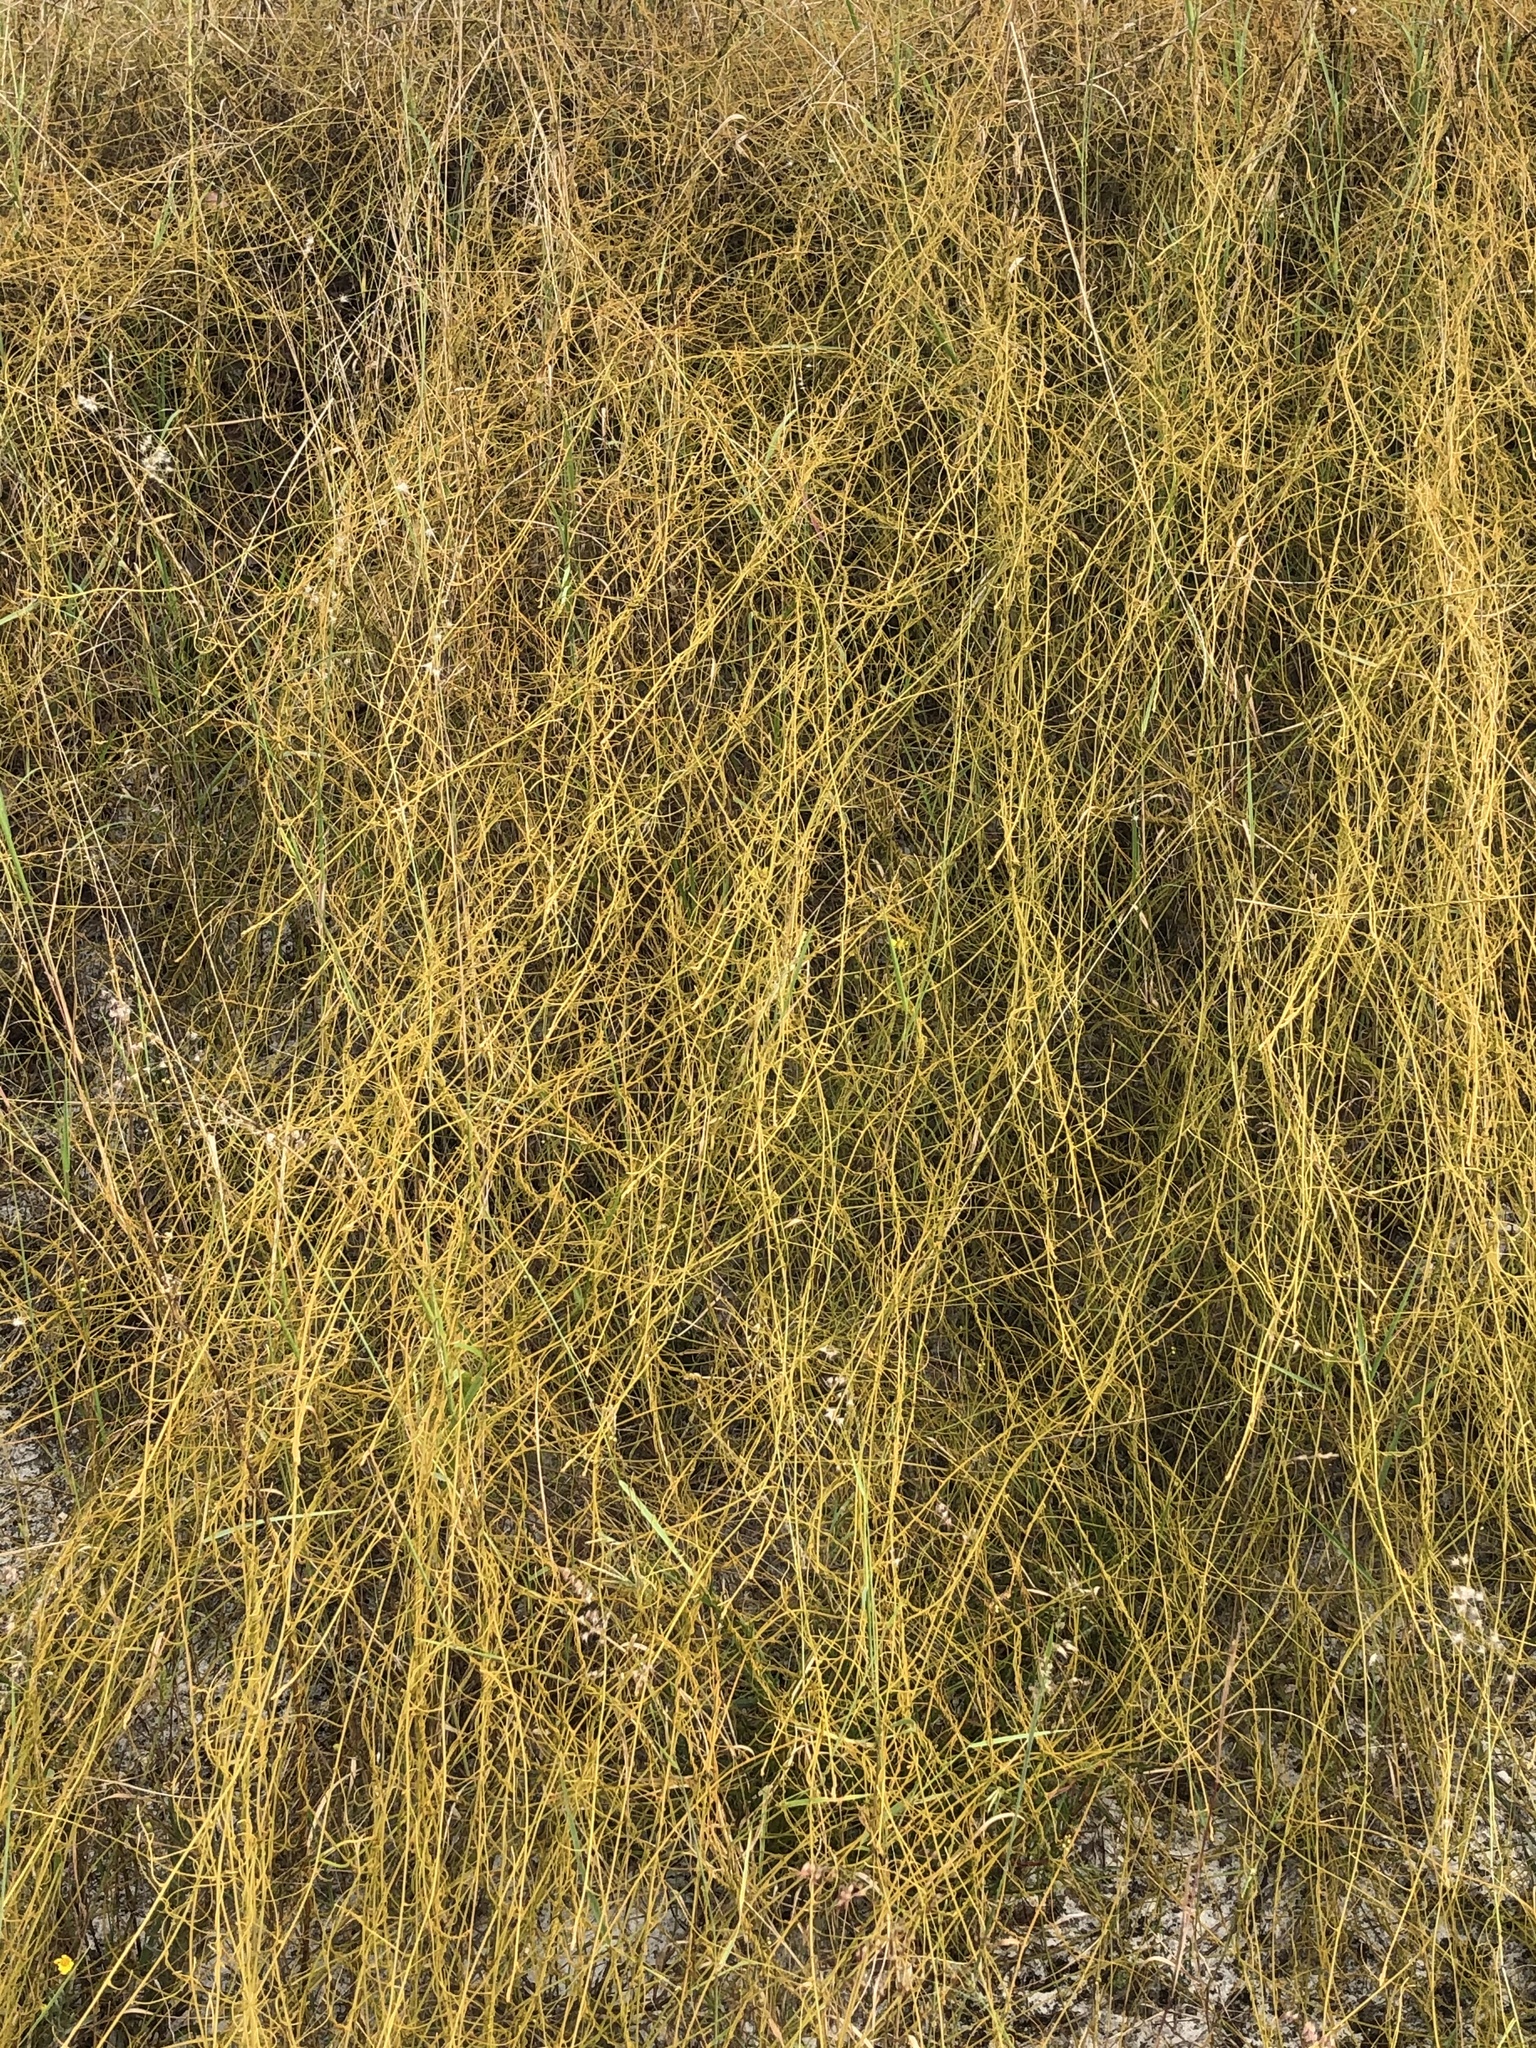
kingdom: Plantae
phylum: Tracheophyta
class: Magnoliopsida
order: Laurales
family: Lauraceae
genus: Cassytha
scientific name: Cassytha filiformis
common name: Dodder-laurel
